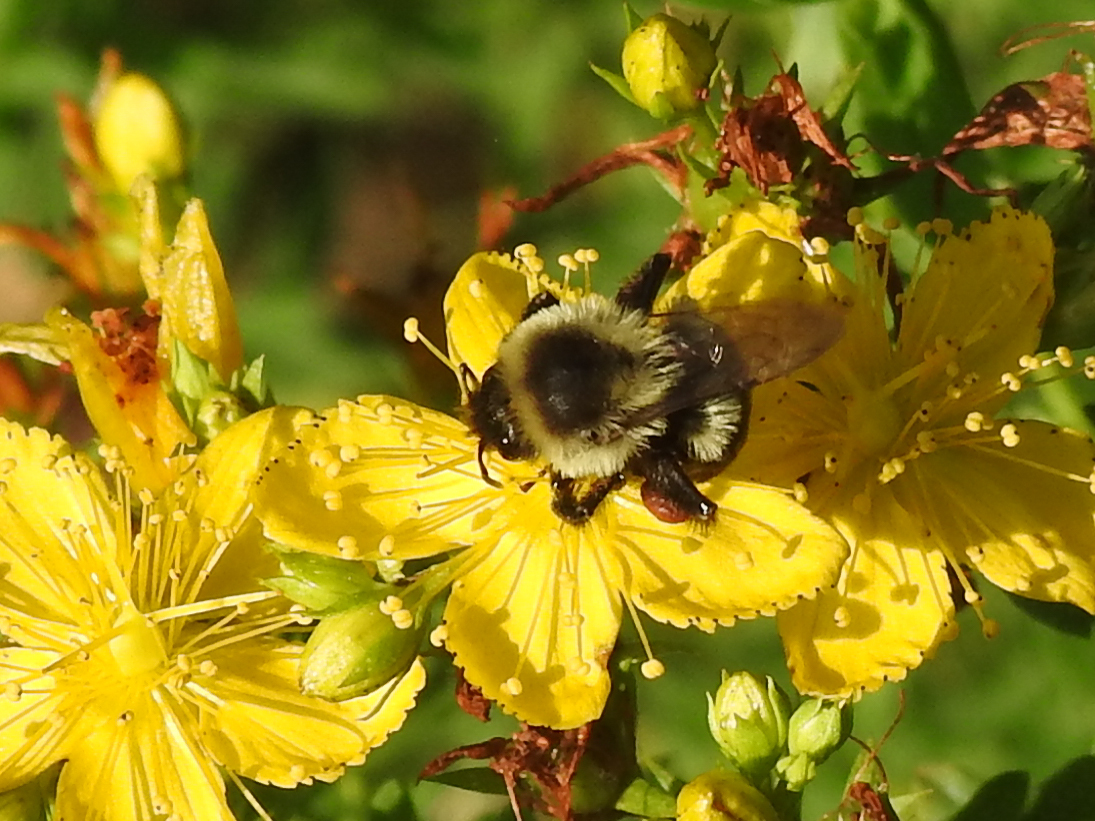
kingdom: Animalia
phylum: Arthropoda
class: Insecta
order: Hymenoptera
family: Apidae
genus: Bombus
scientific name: Bombus impatiens
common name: Common eastern bumble bee
